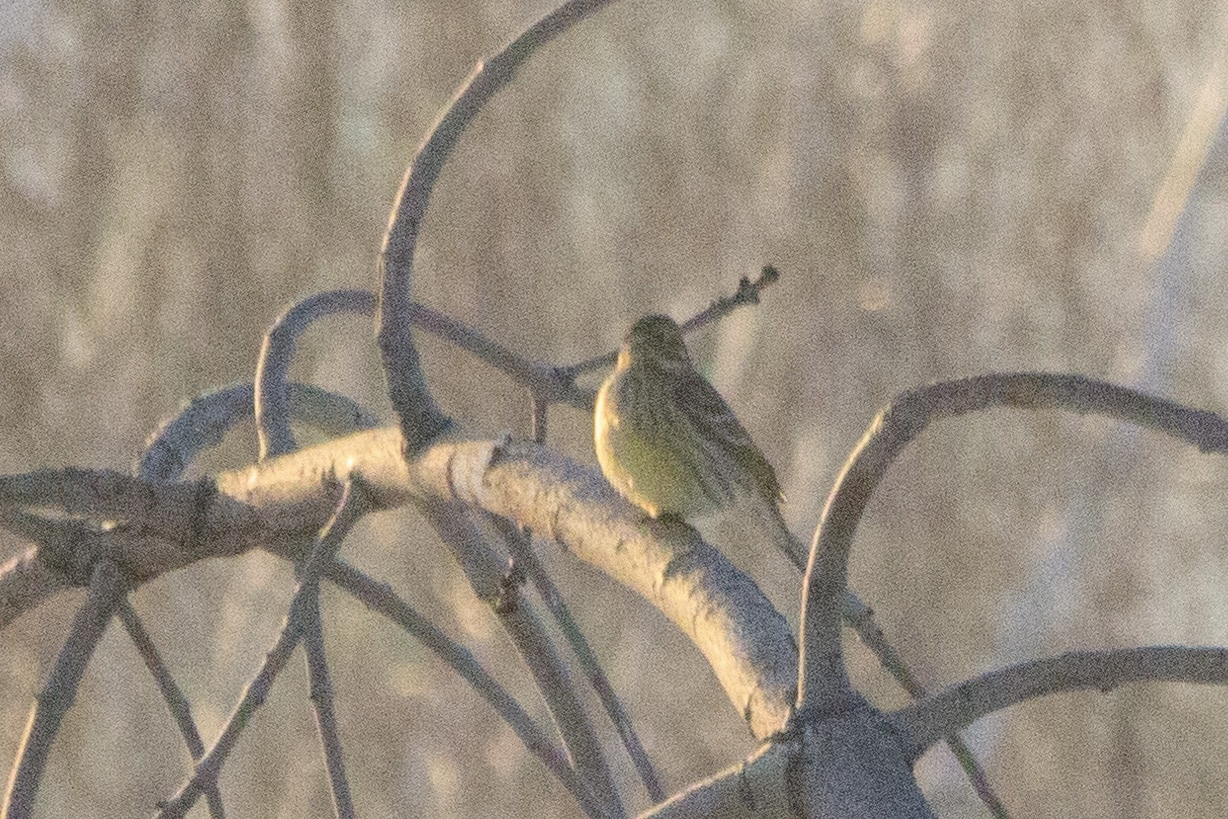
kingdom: Animalia
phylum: Chordata
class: Aves
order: Passeriformes
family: Emberizidae
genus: Emberiza
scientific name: Emberiza citrinella
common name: Yellowhammer
